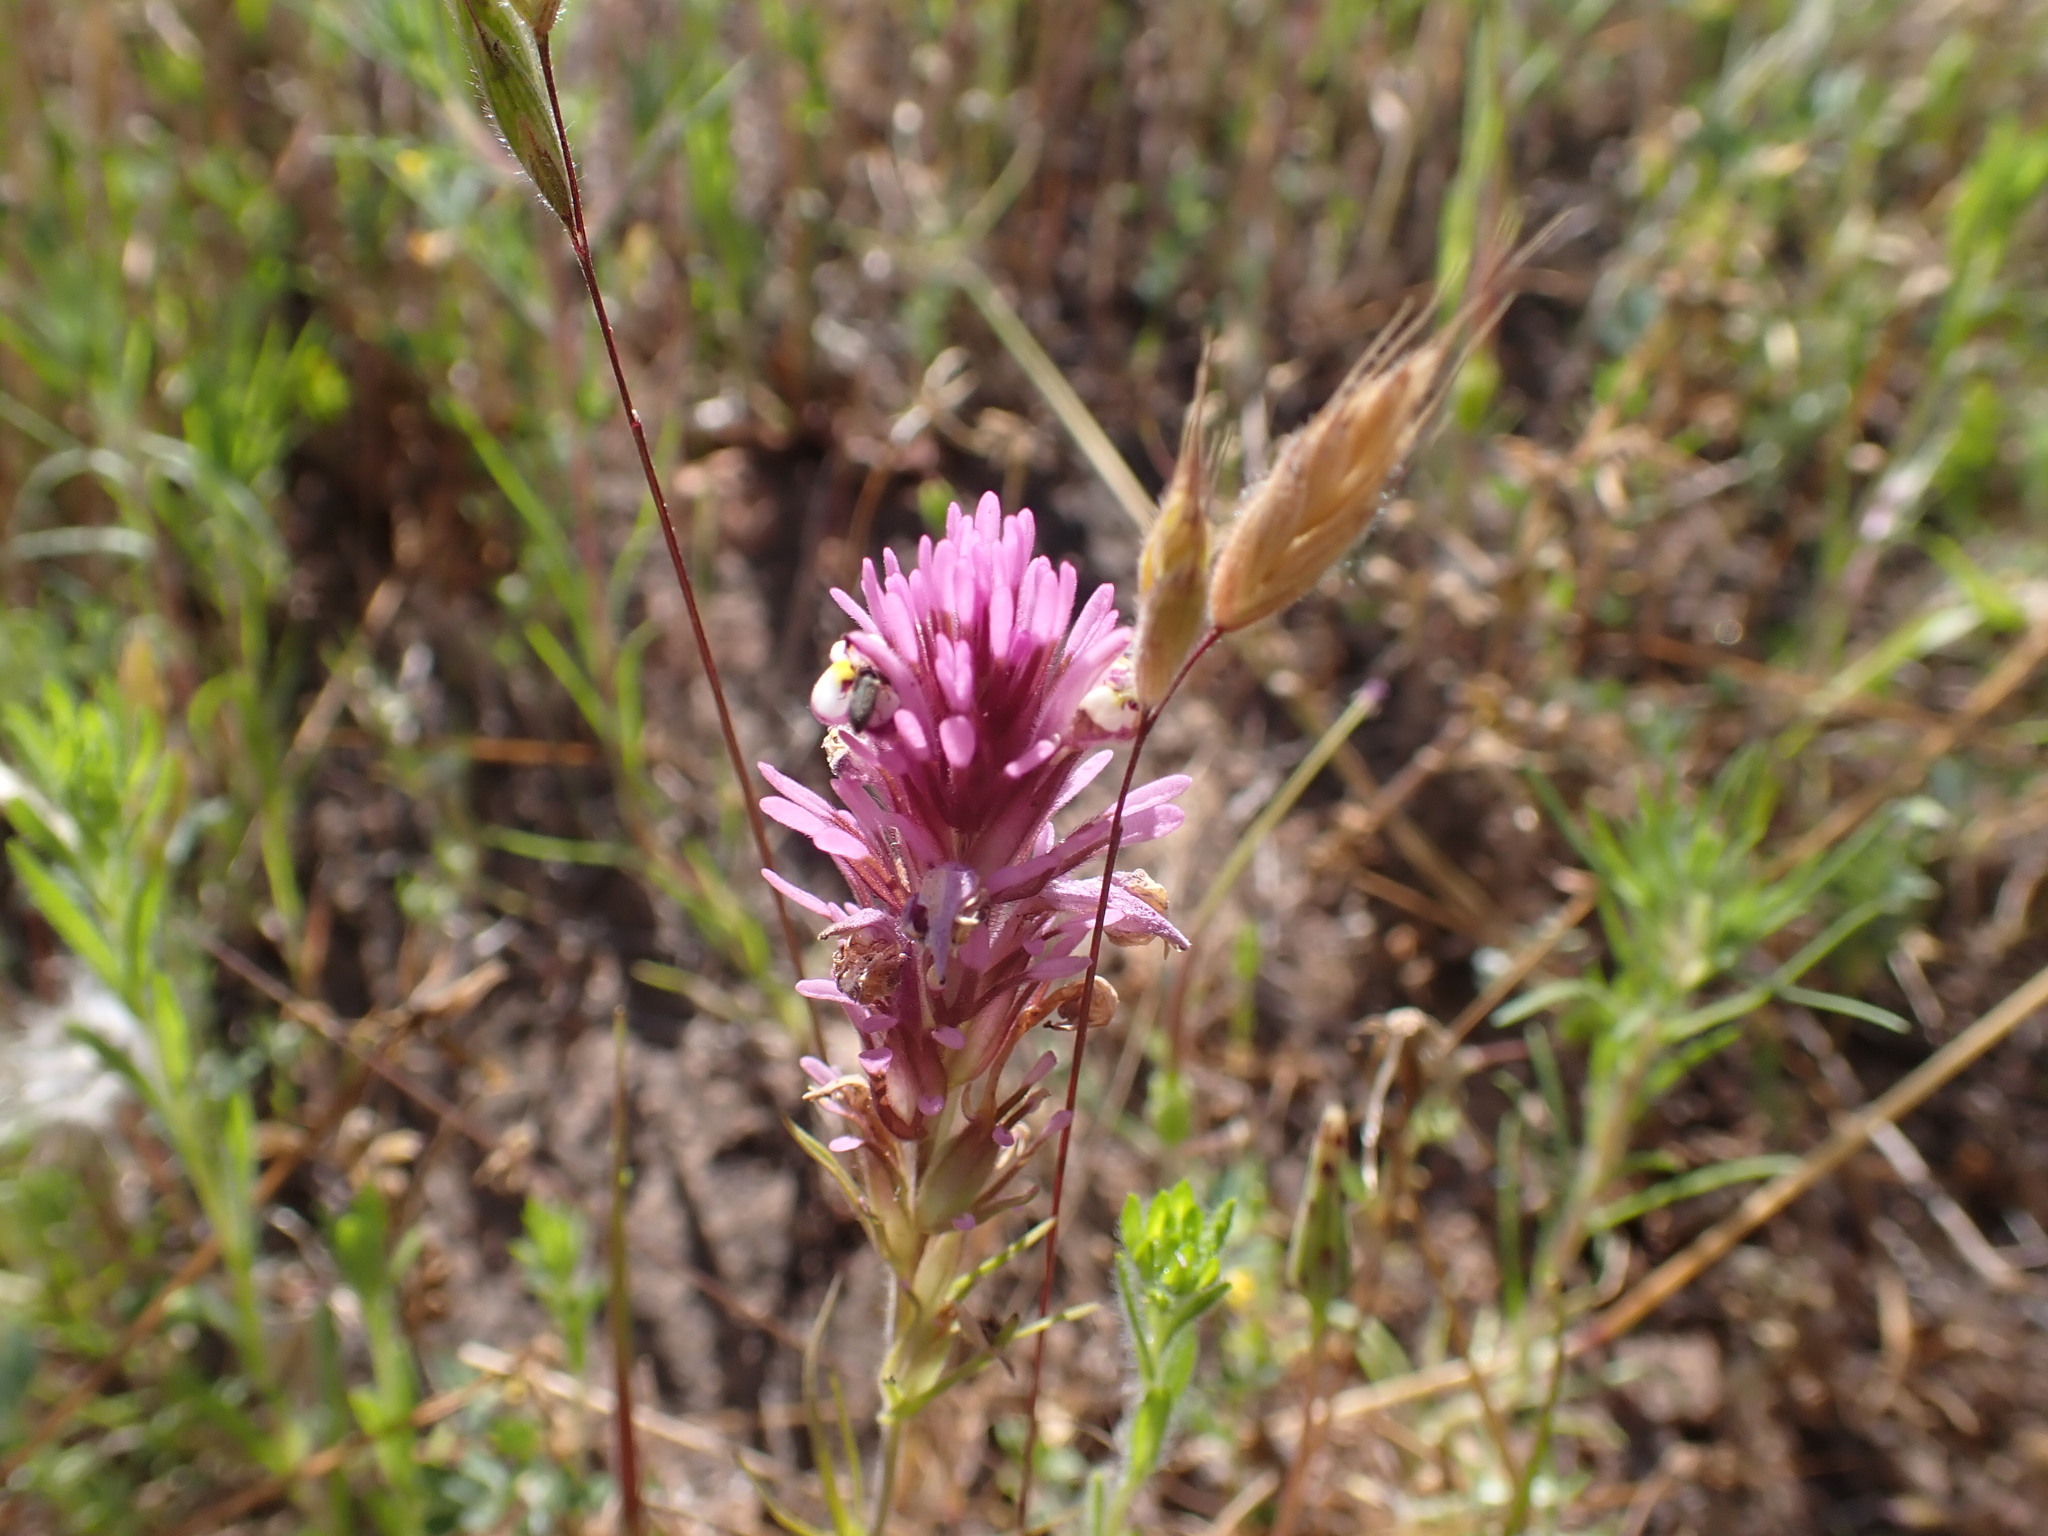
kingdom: Plantae
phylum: Tracheophyta
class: Magnoliopsida
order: Lamiales
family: Orobanchaceae
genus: Castilleja
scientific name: Castilleja densiflora
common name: Dense-flower indian paintbrush
